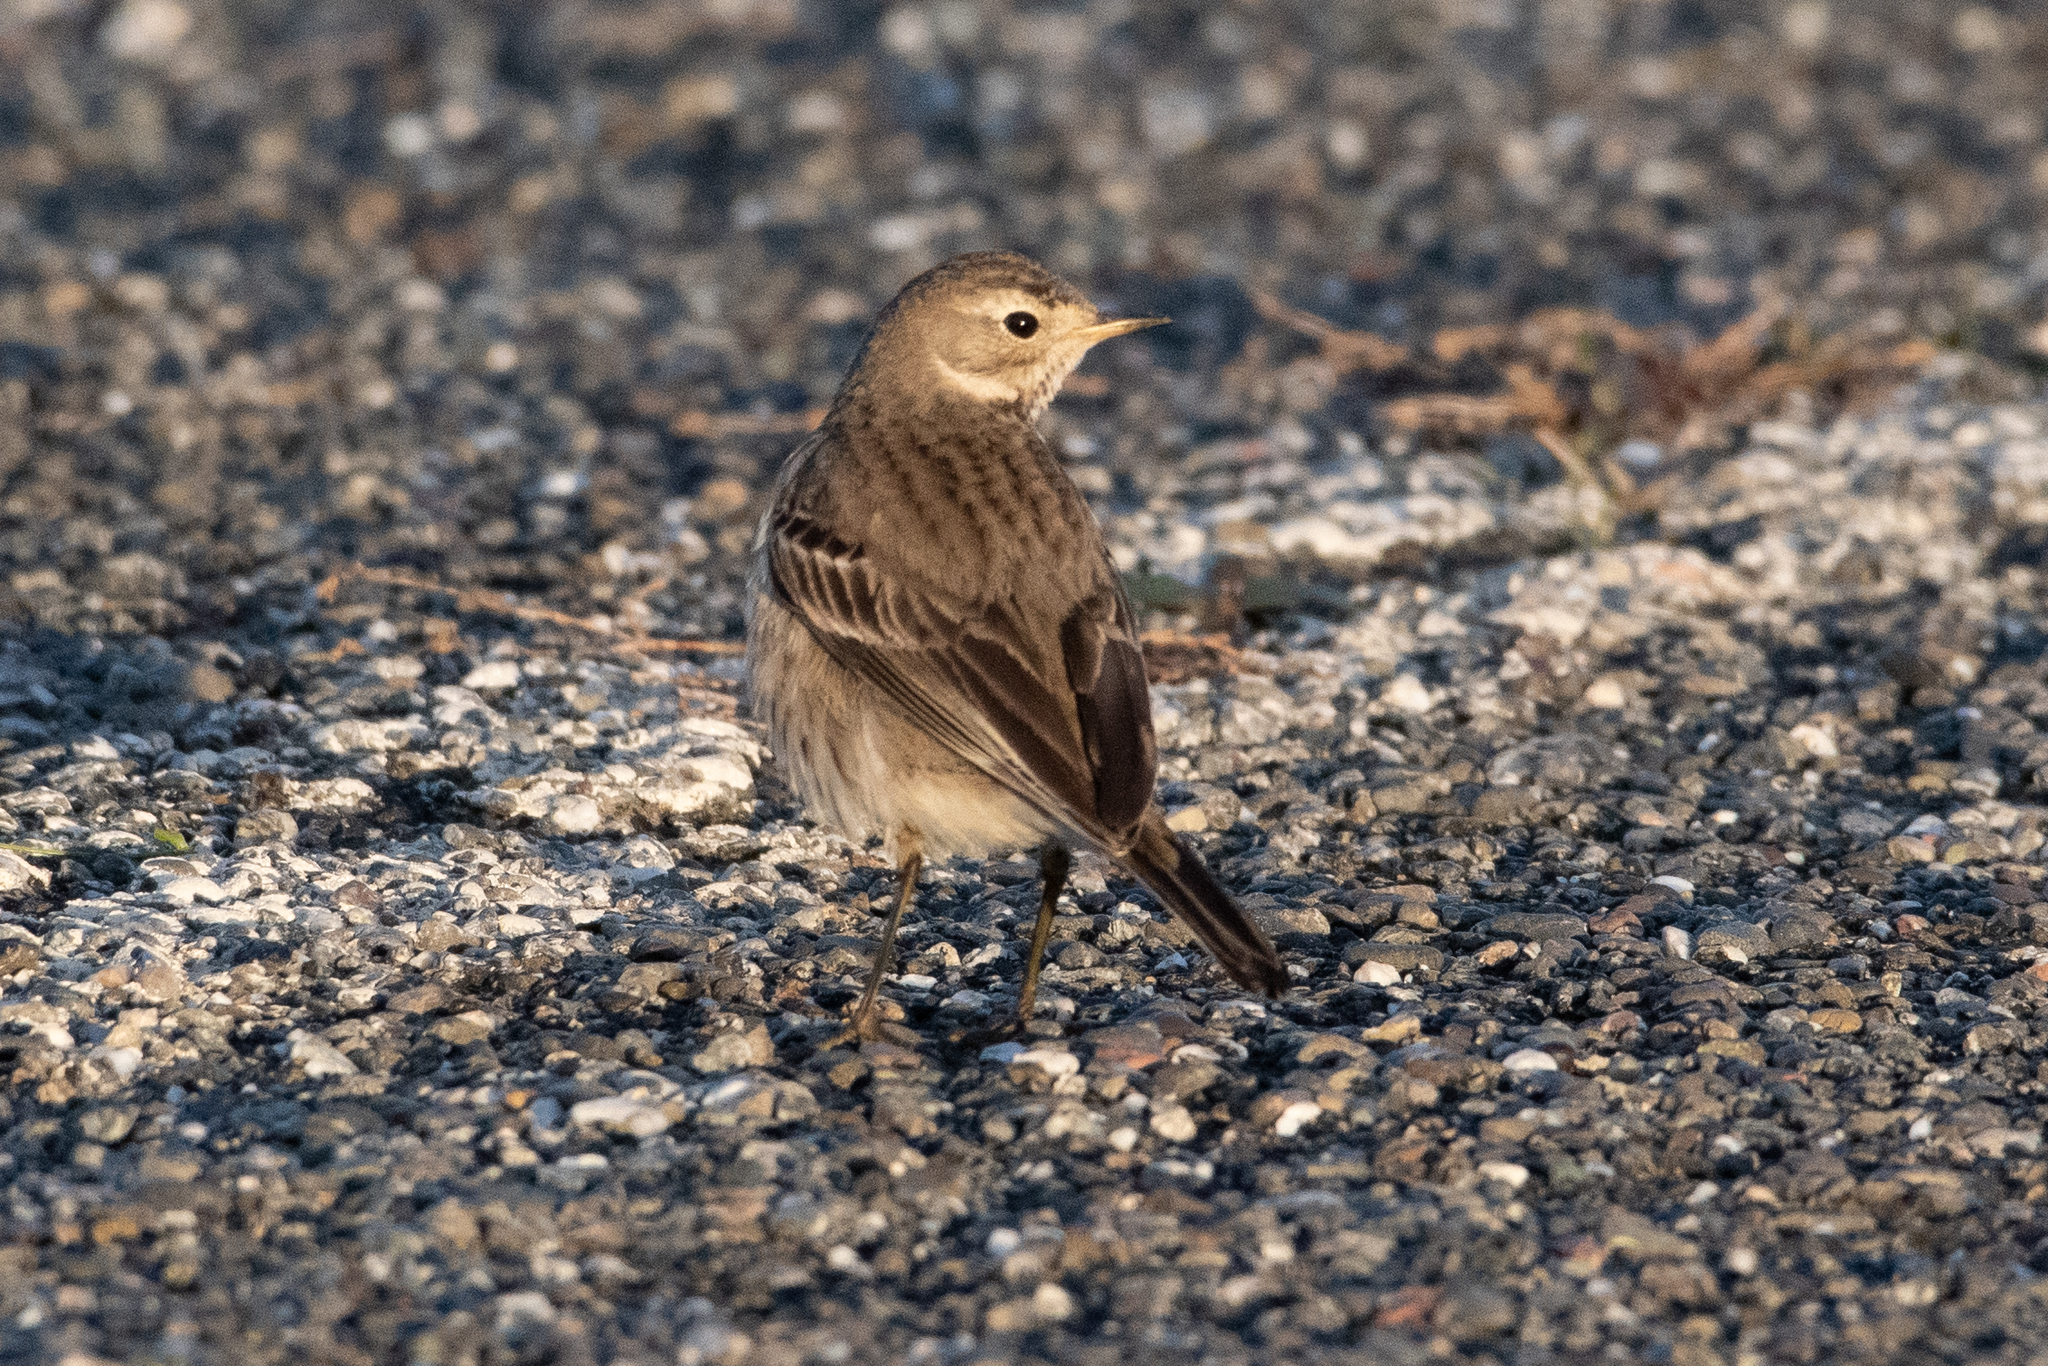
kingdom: Animalia
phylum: Chordata
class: Aves
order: Passeriformes
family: Motacillidae
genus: Anthus
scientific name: Anthus rubescens
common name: Buff-bellied pipit
